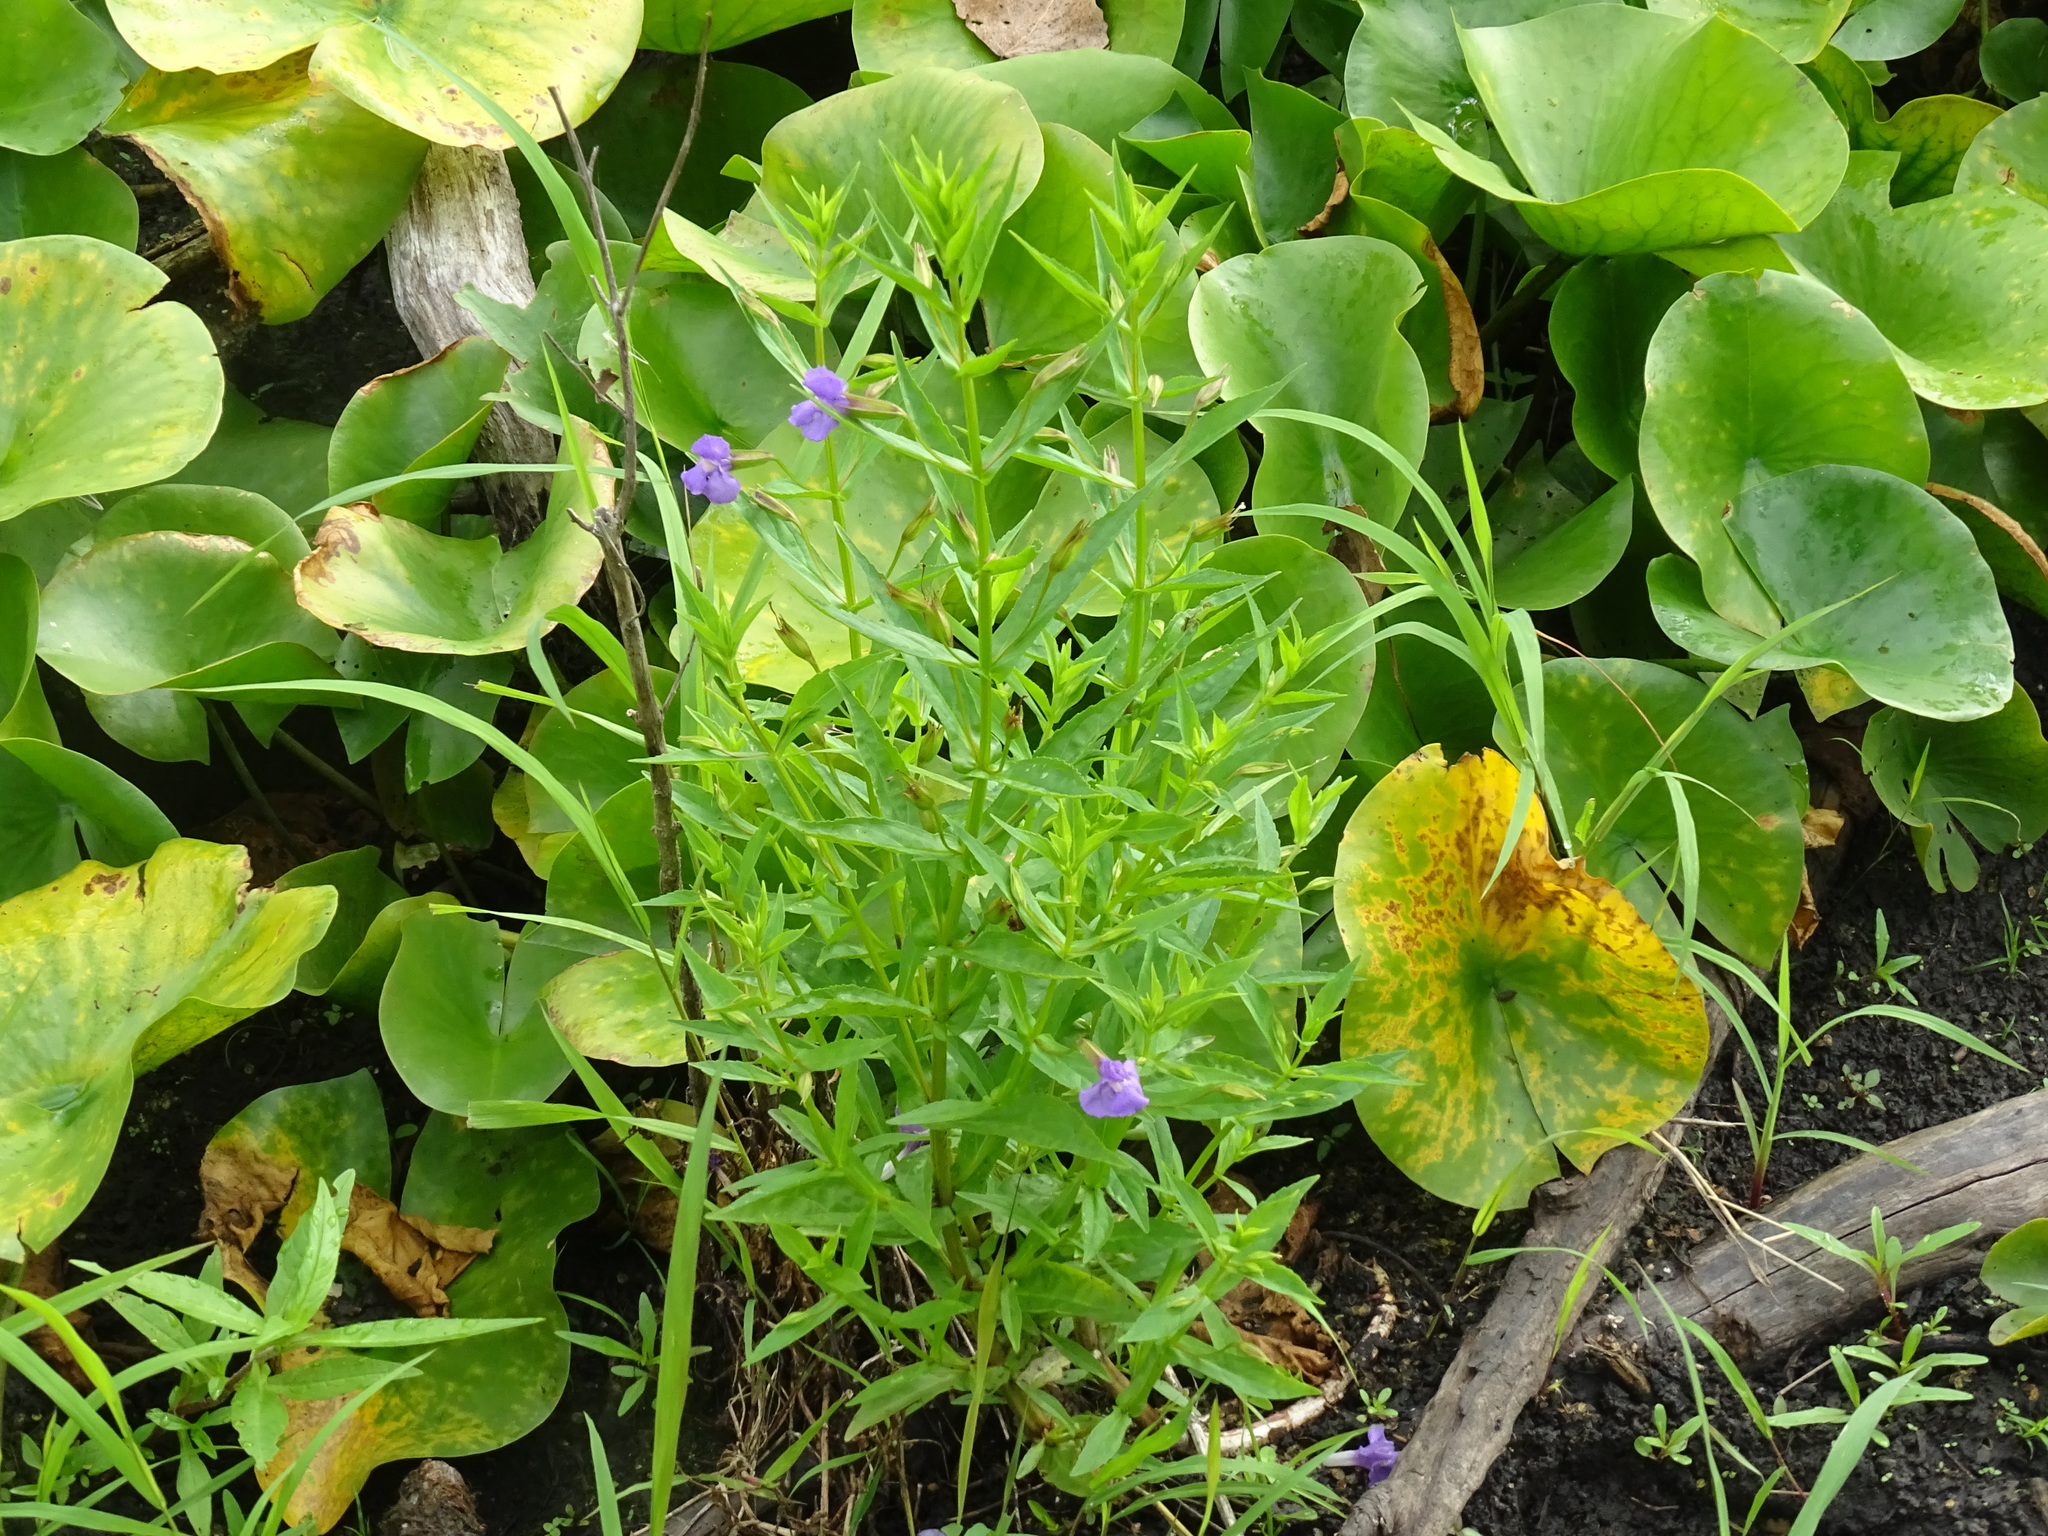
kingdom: Plantae
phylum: Tracheophyta
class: Magnoliopsida
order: Lamiales
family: Phrymaceae
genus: Mimulus
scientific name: Mimulus ringens
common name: Allegheny monkeyflower
